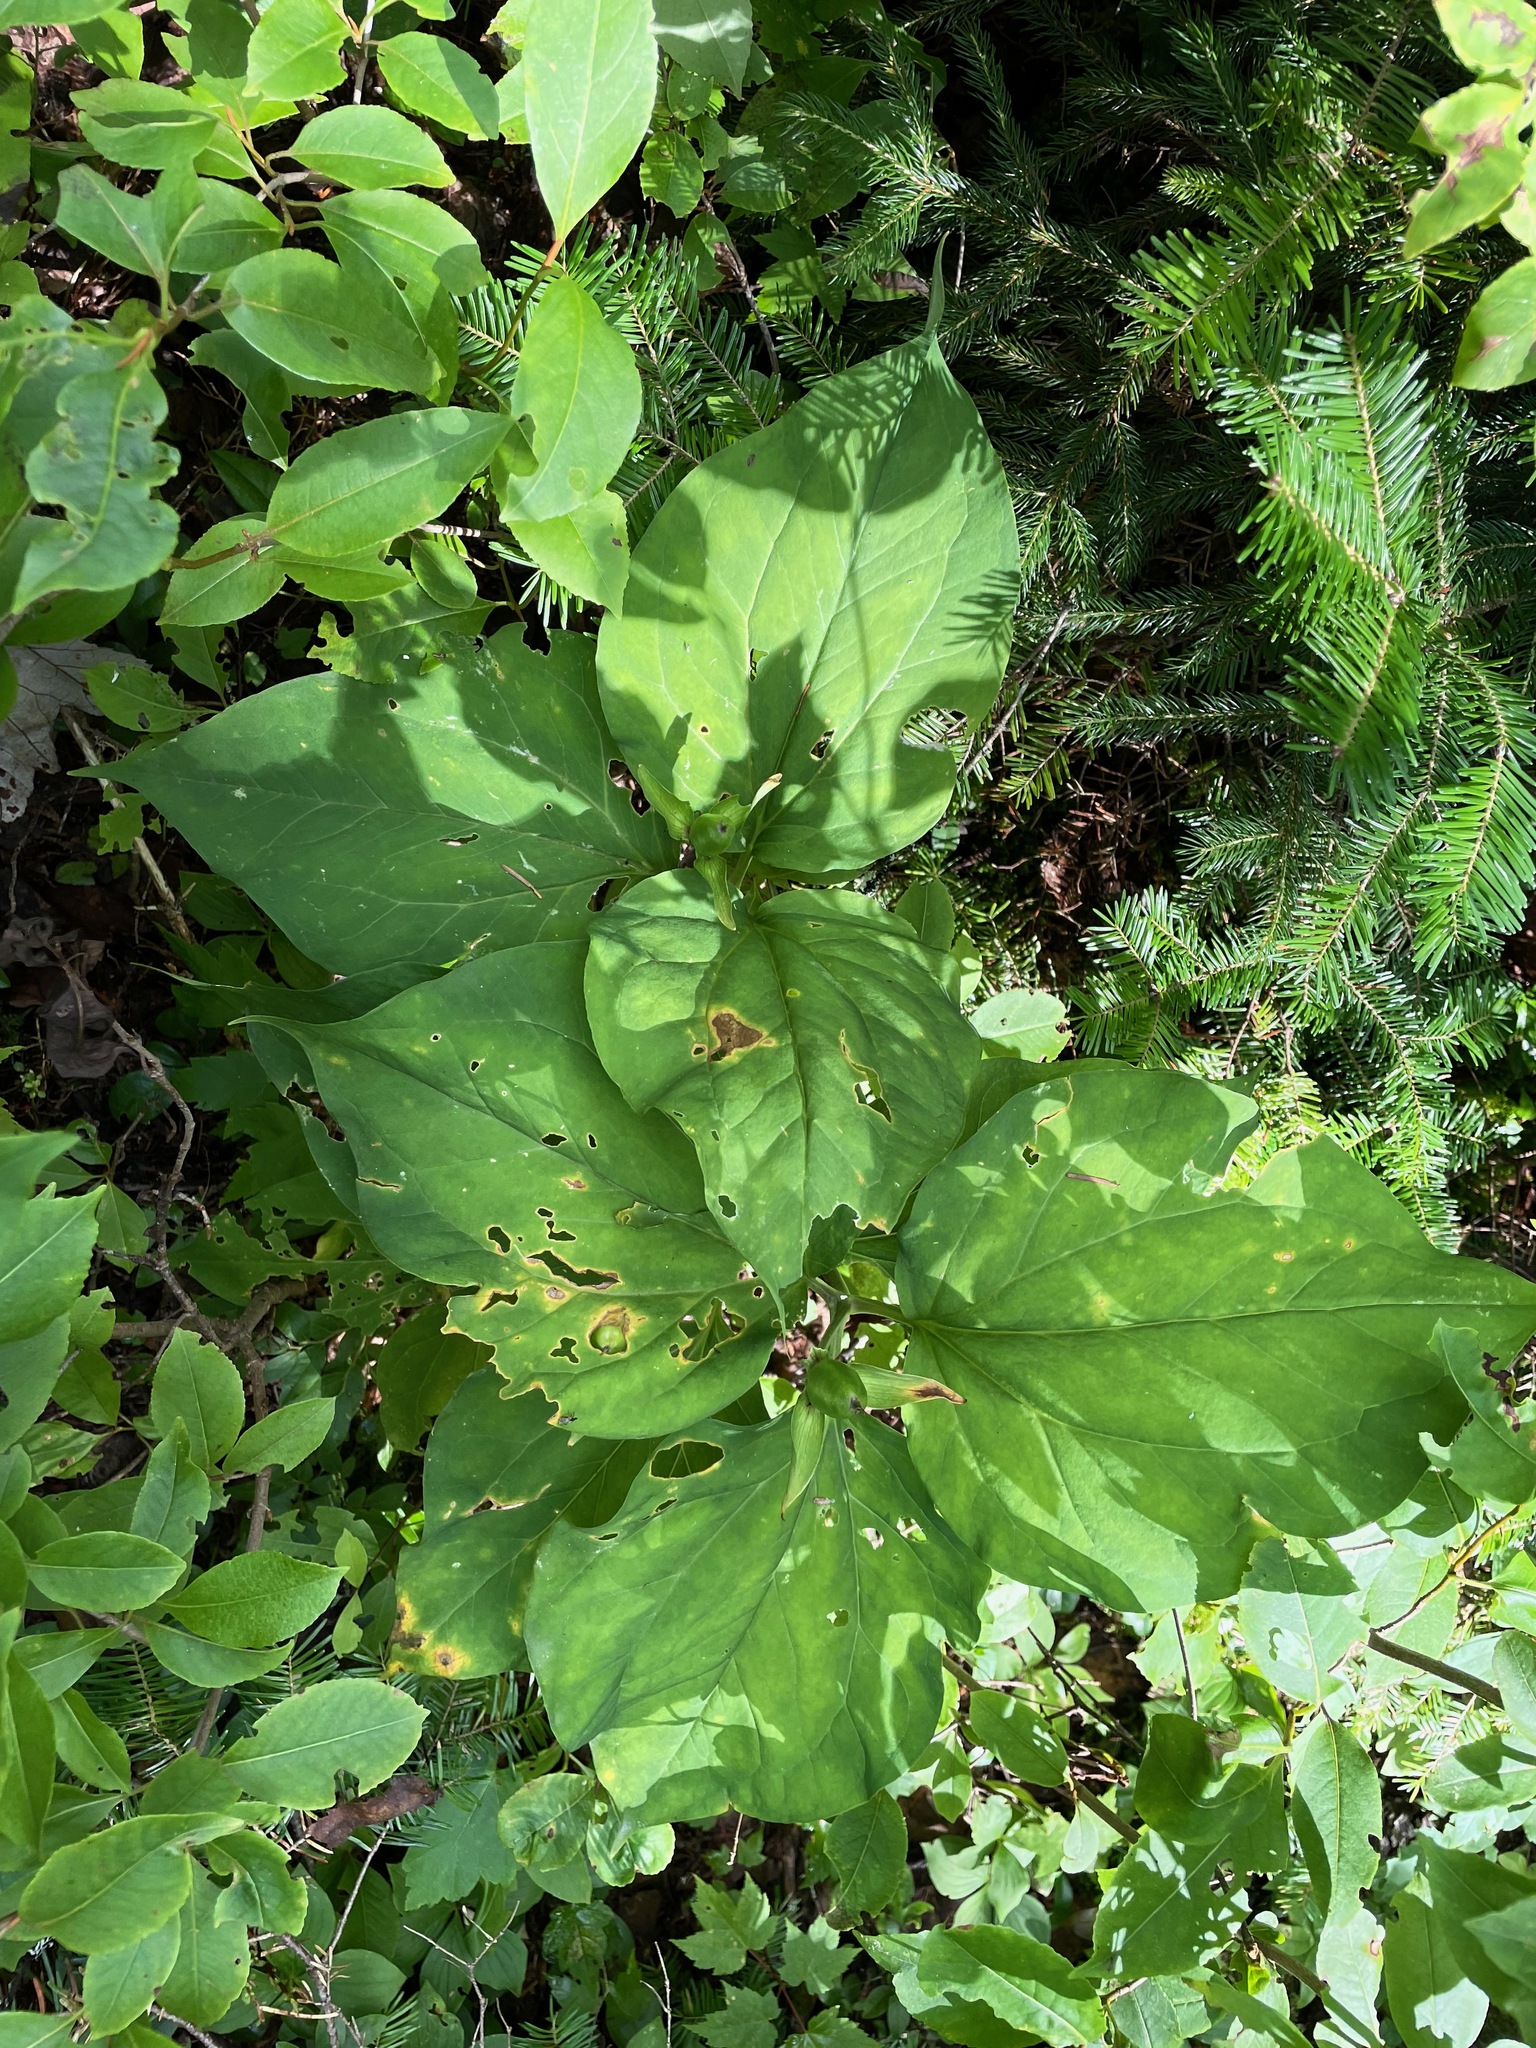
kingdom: Plantae
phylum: Tracheophyta
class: Liliopsida
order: Liliales
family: Melanthiaceae
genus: Trillium
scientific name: Trillium undulatum
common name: Paint trillium
